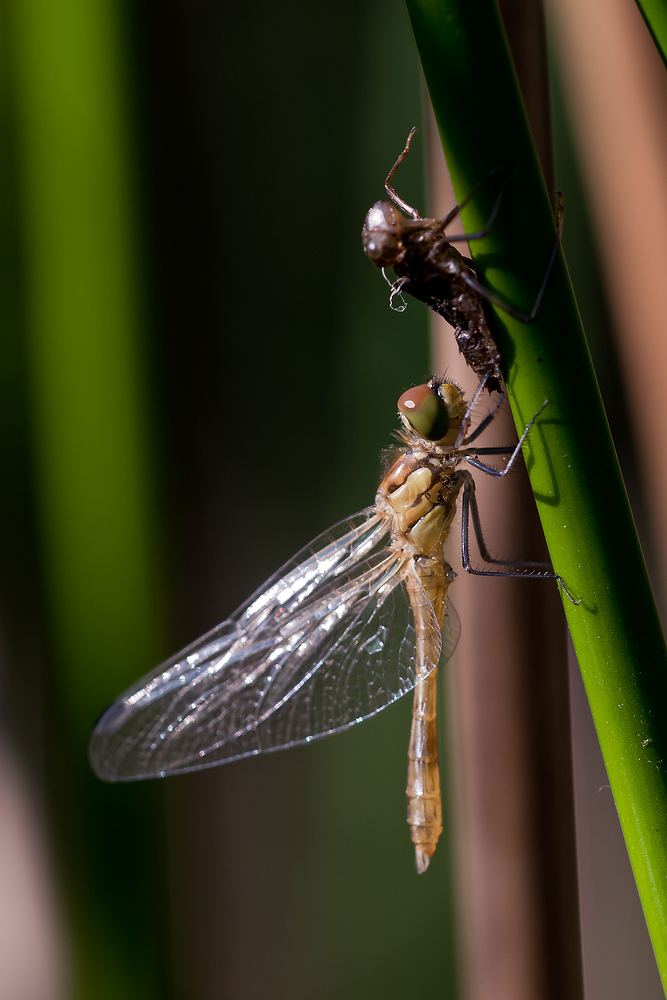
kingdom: Animalia
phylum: Arthropoda
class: Insecta
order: Odonata
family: Libellulidae
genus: Sympetrum
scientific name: Sympetrum sanguineum
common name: Ruddy darter
